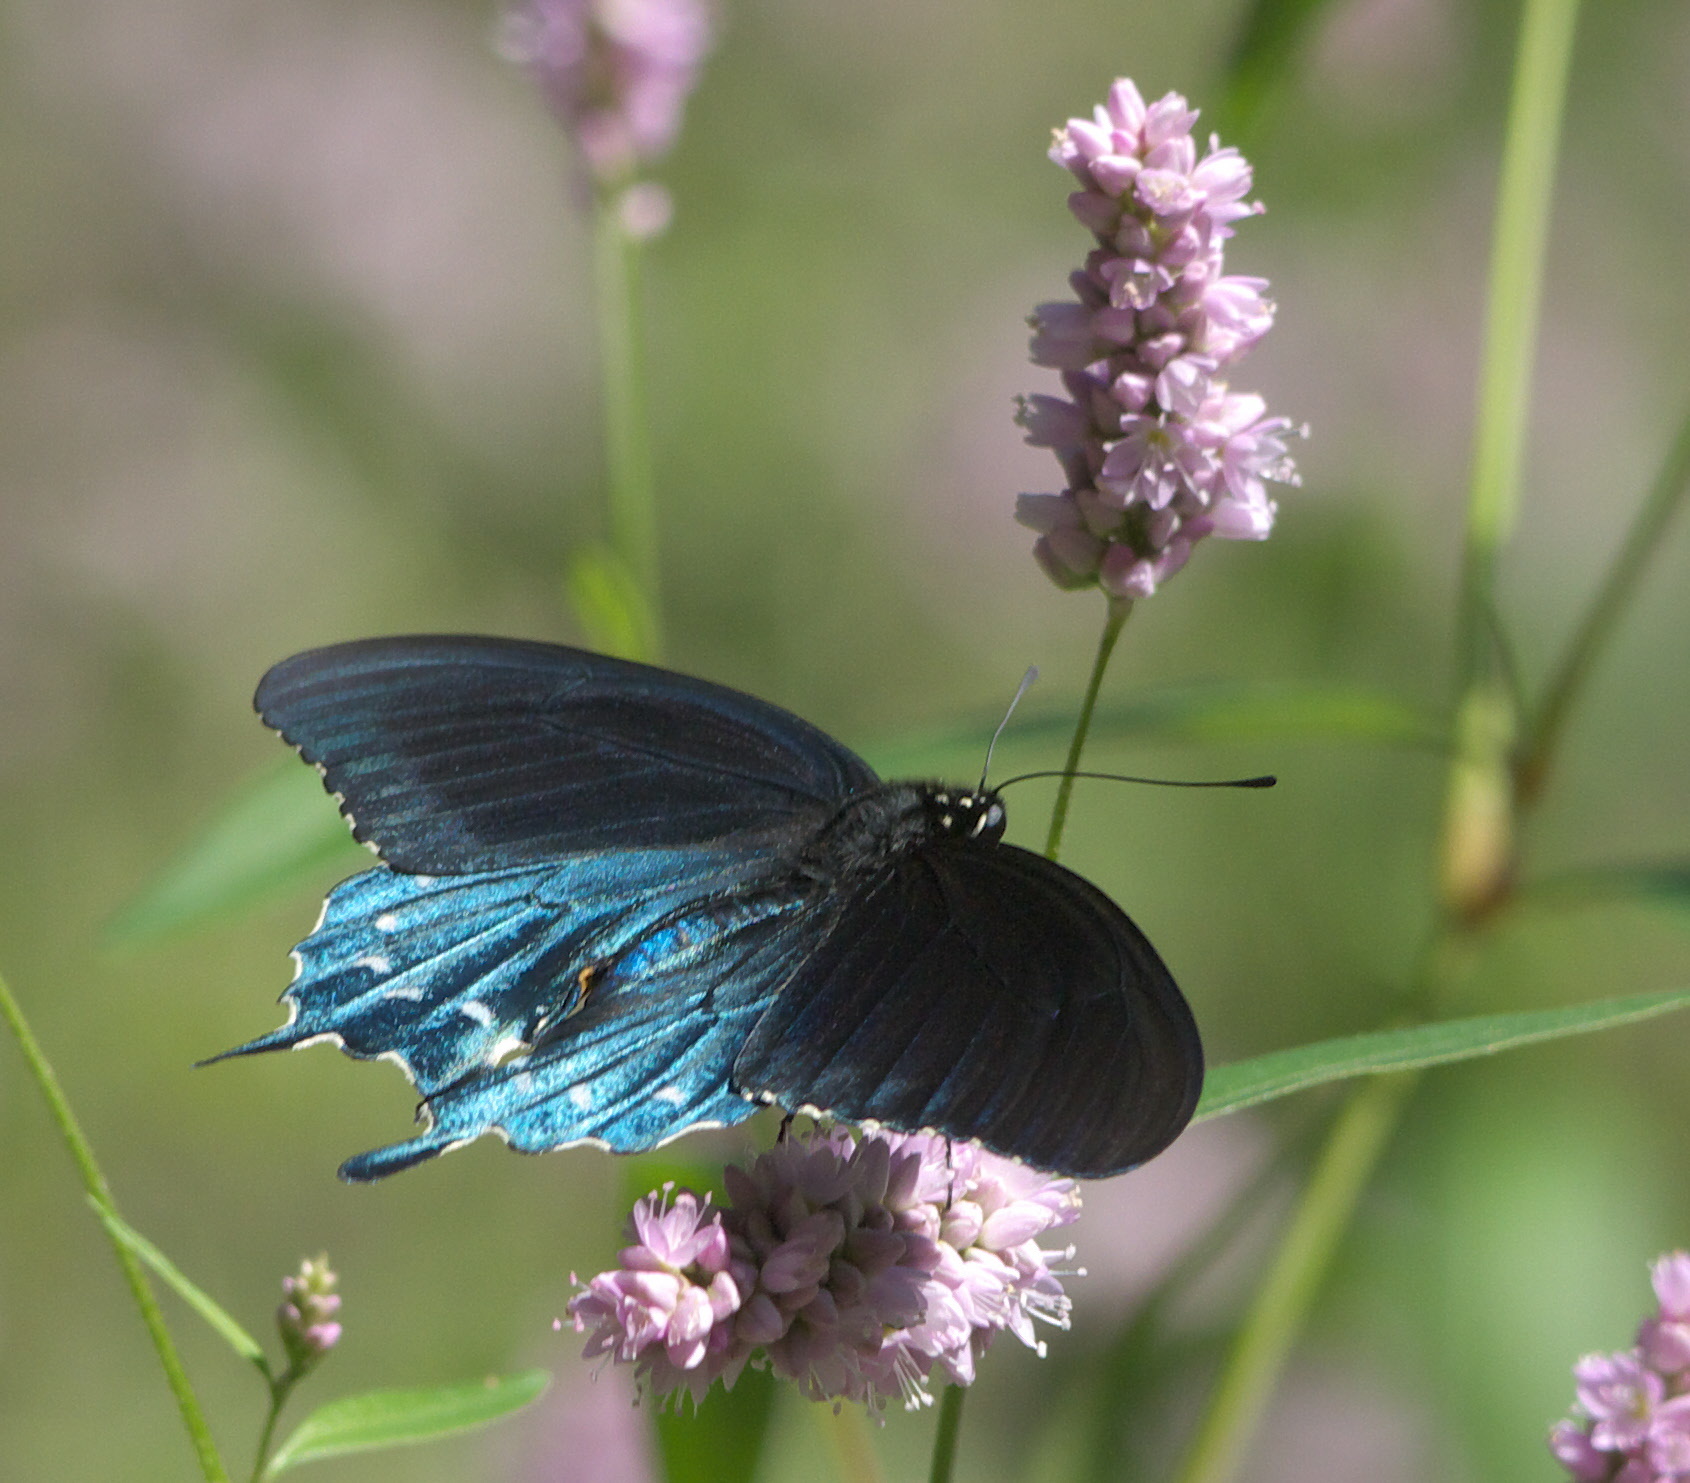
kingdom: Animalia
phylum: Arthropoda
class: Insecta
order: Lepidoptera
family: Papilionidae
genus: Battus
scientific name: Battus philenor
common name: Pipevine swallowtail
